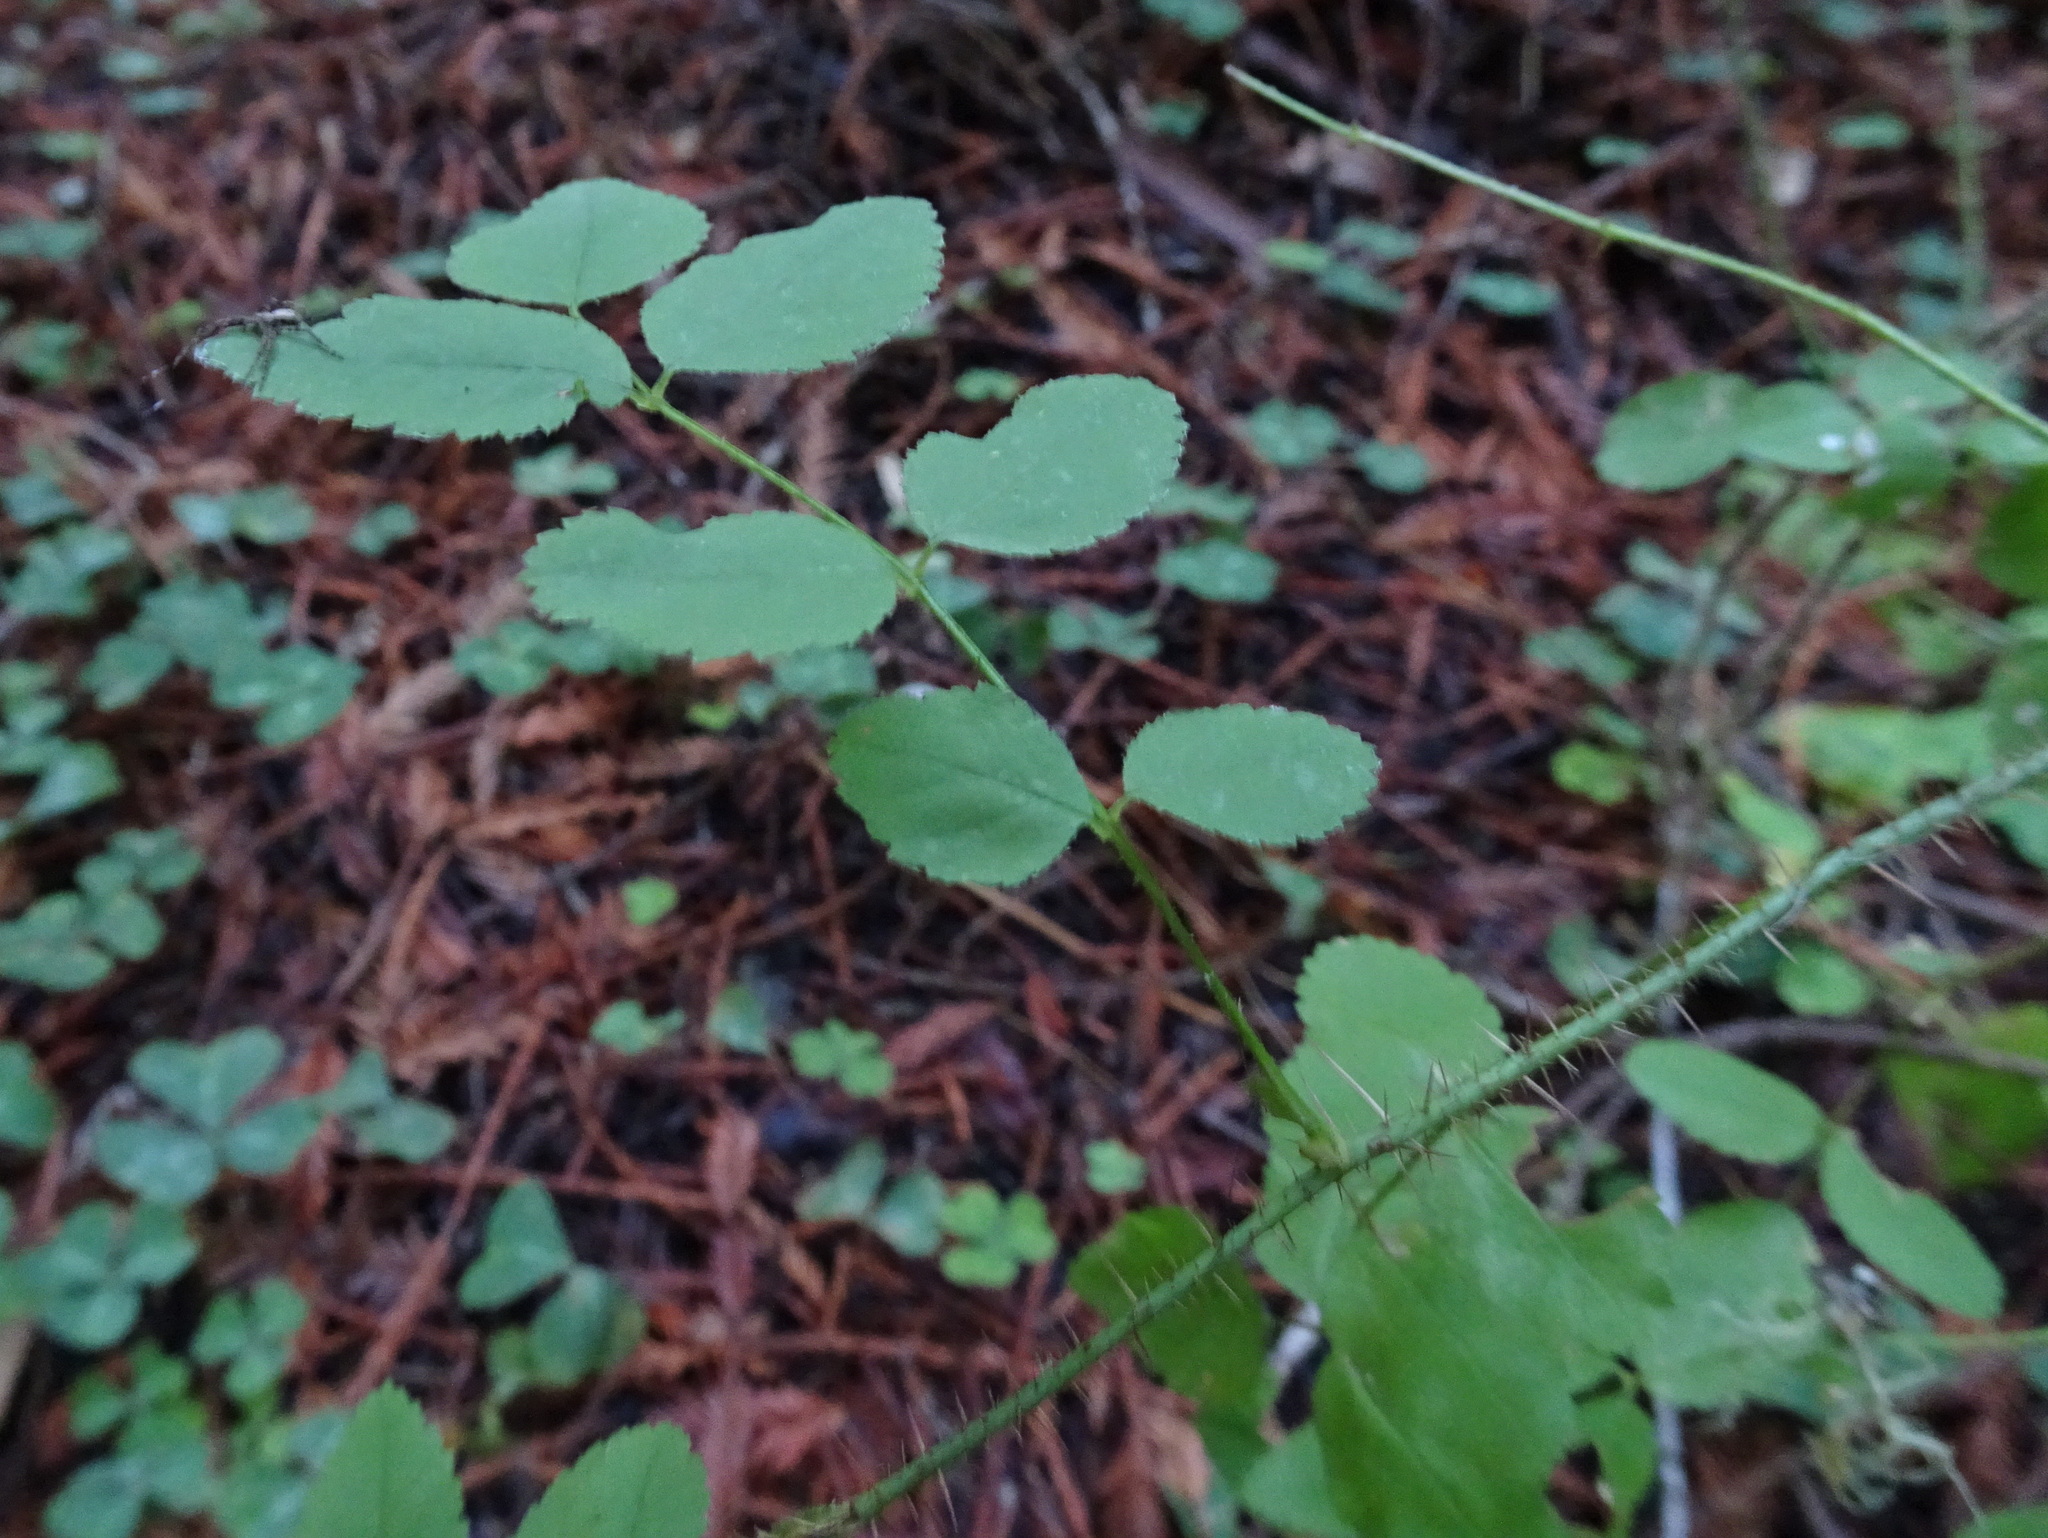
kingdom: Plantae
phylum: Tracheophyta
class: Magnoliopsida
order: Rosales
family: Rosaceae
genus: Rosa
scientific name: Rosa gymnocarpa
